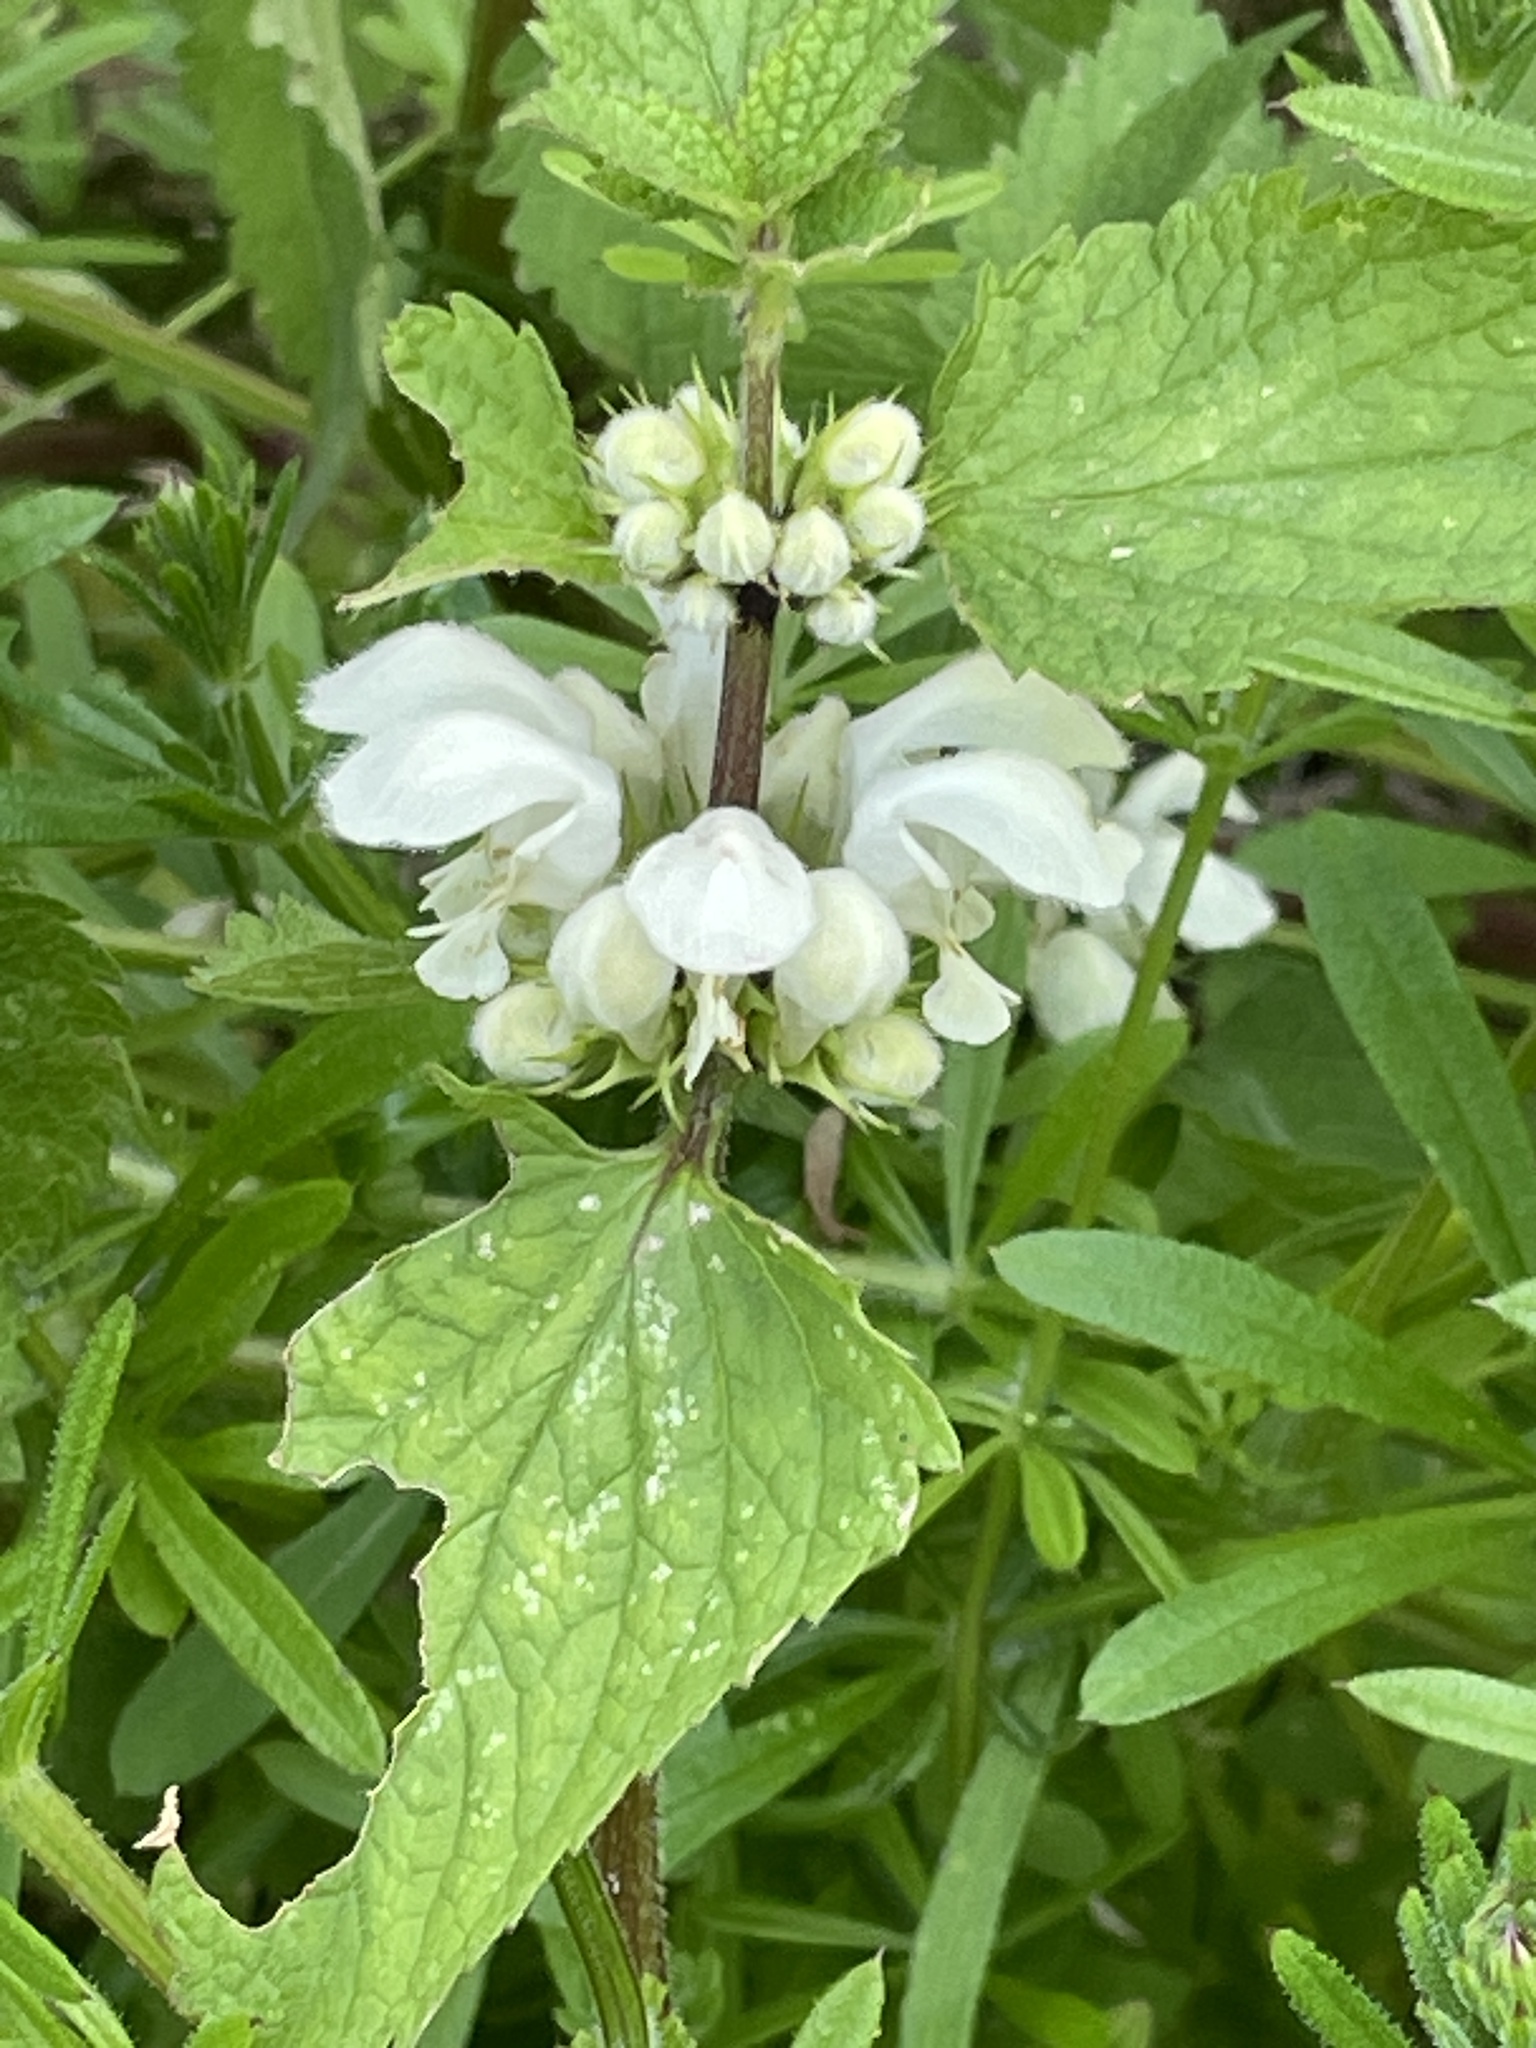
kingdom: Plantae
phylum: Tracheophyta
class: Magnoliopsida
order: Lamiales
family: Lamiaceae
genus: Lamium
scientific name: Lamium album
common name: White dead-nettle
